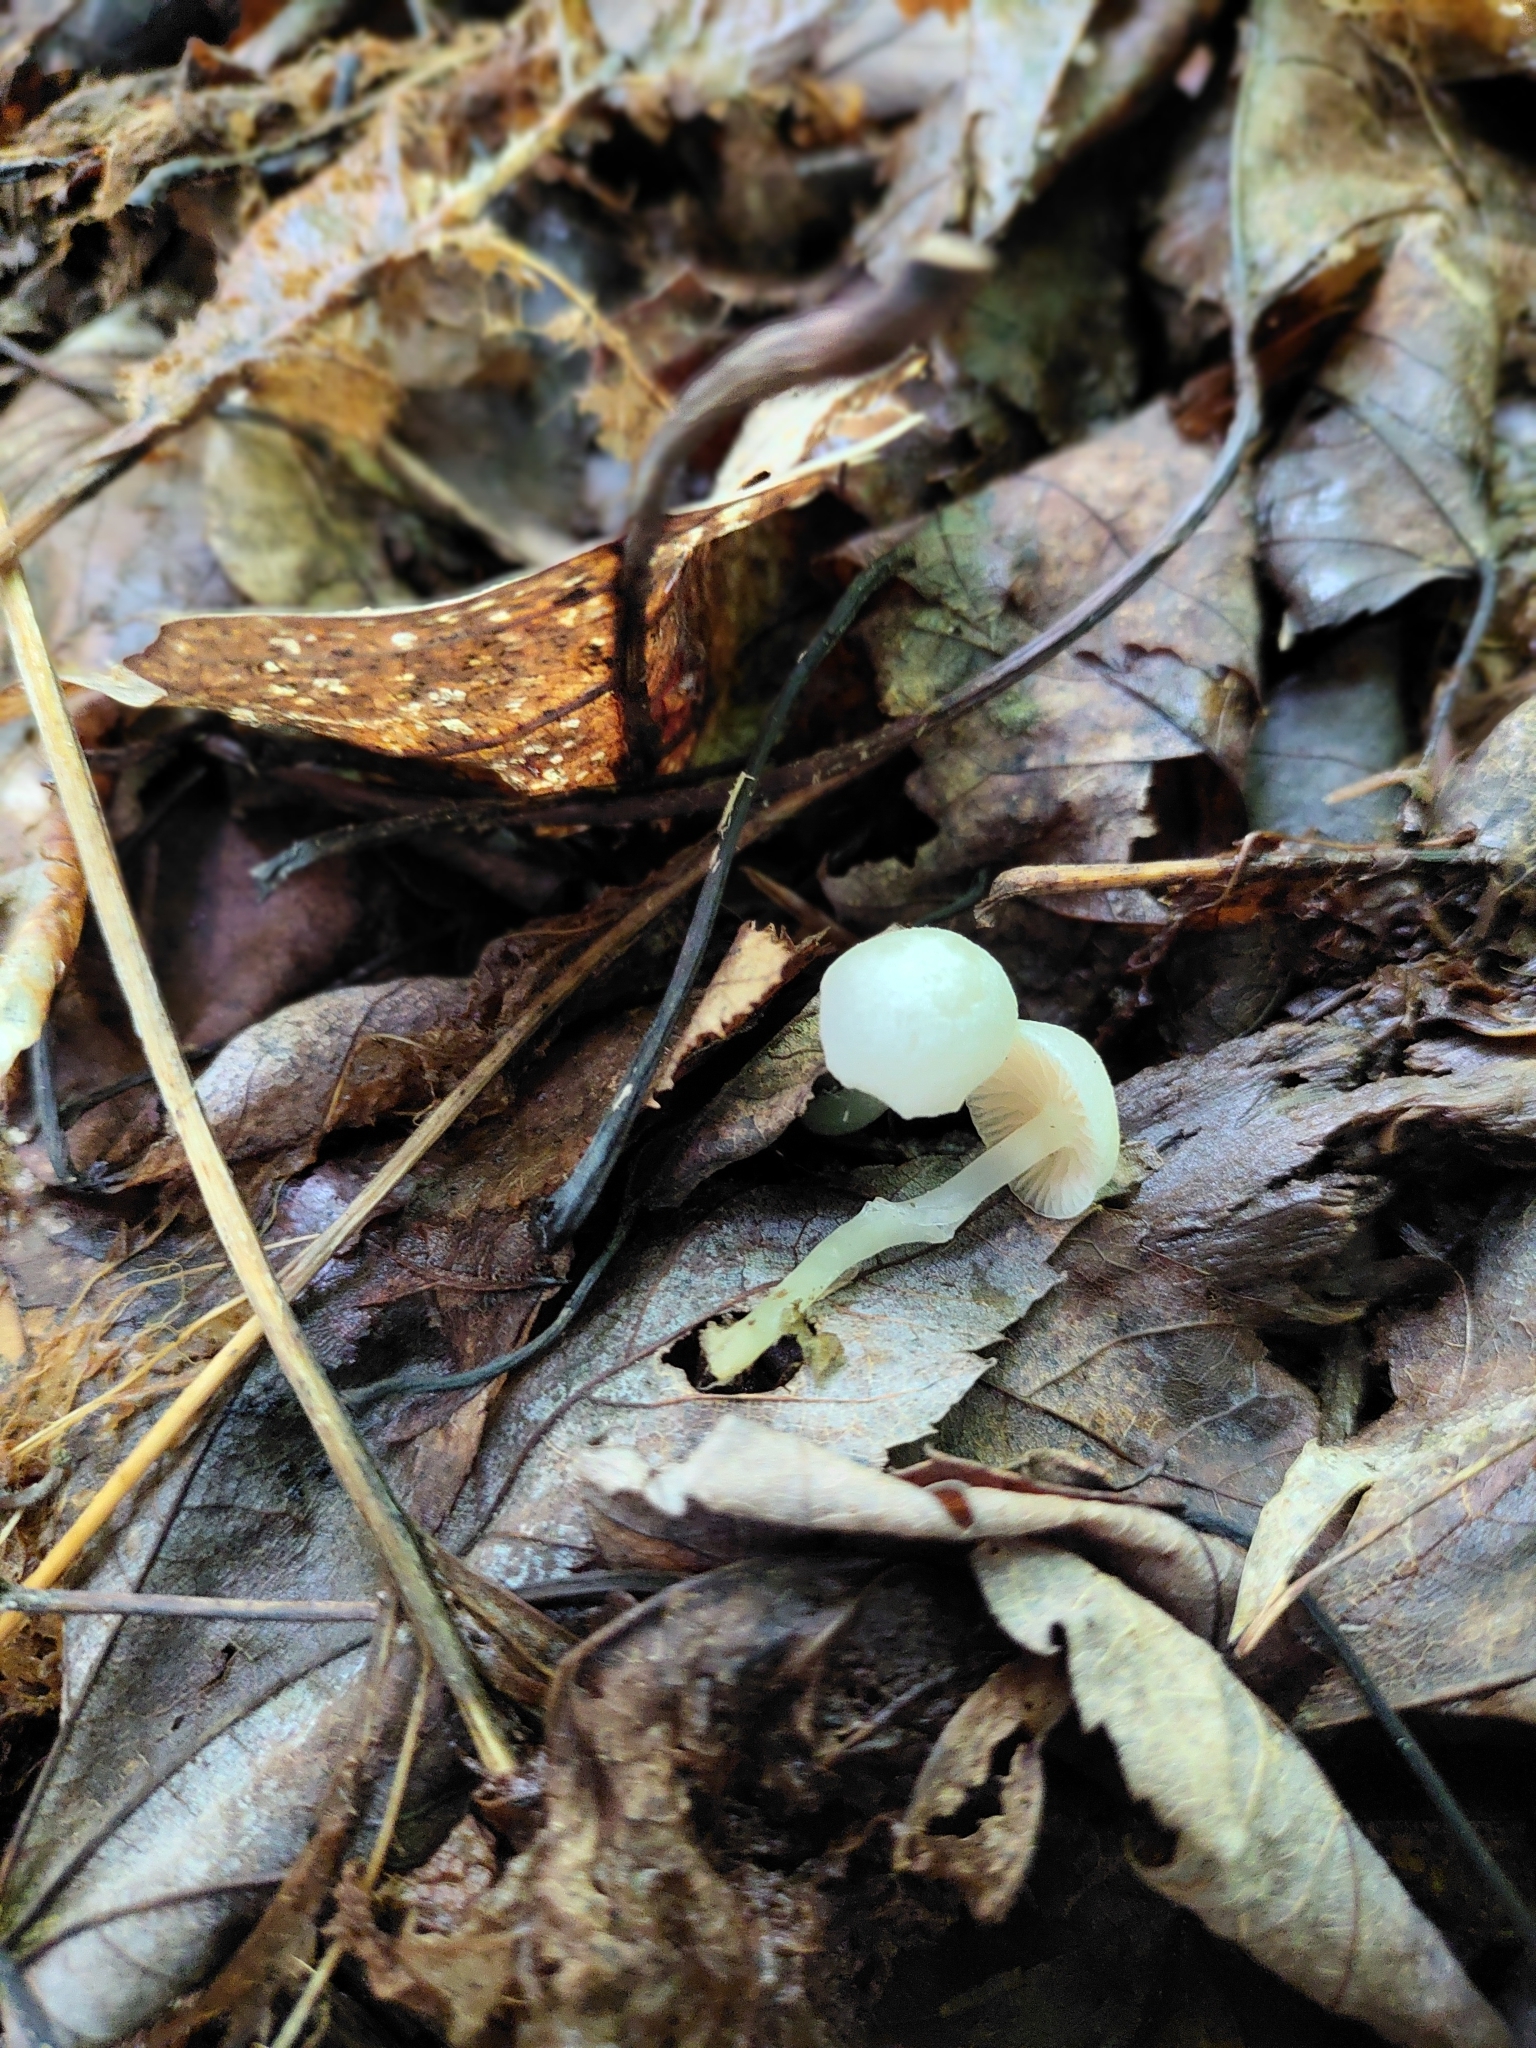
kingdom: Fungi
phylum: Basidiomycota
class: Agaricomycetes
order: Agaricales
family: Entolomataceae
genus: Entoloma
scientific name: Entoloma sericellum
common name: Cream pinkgill
